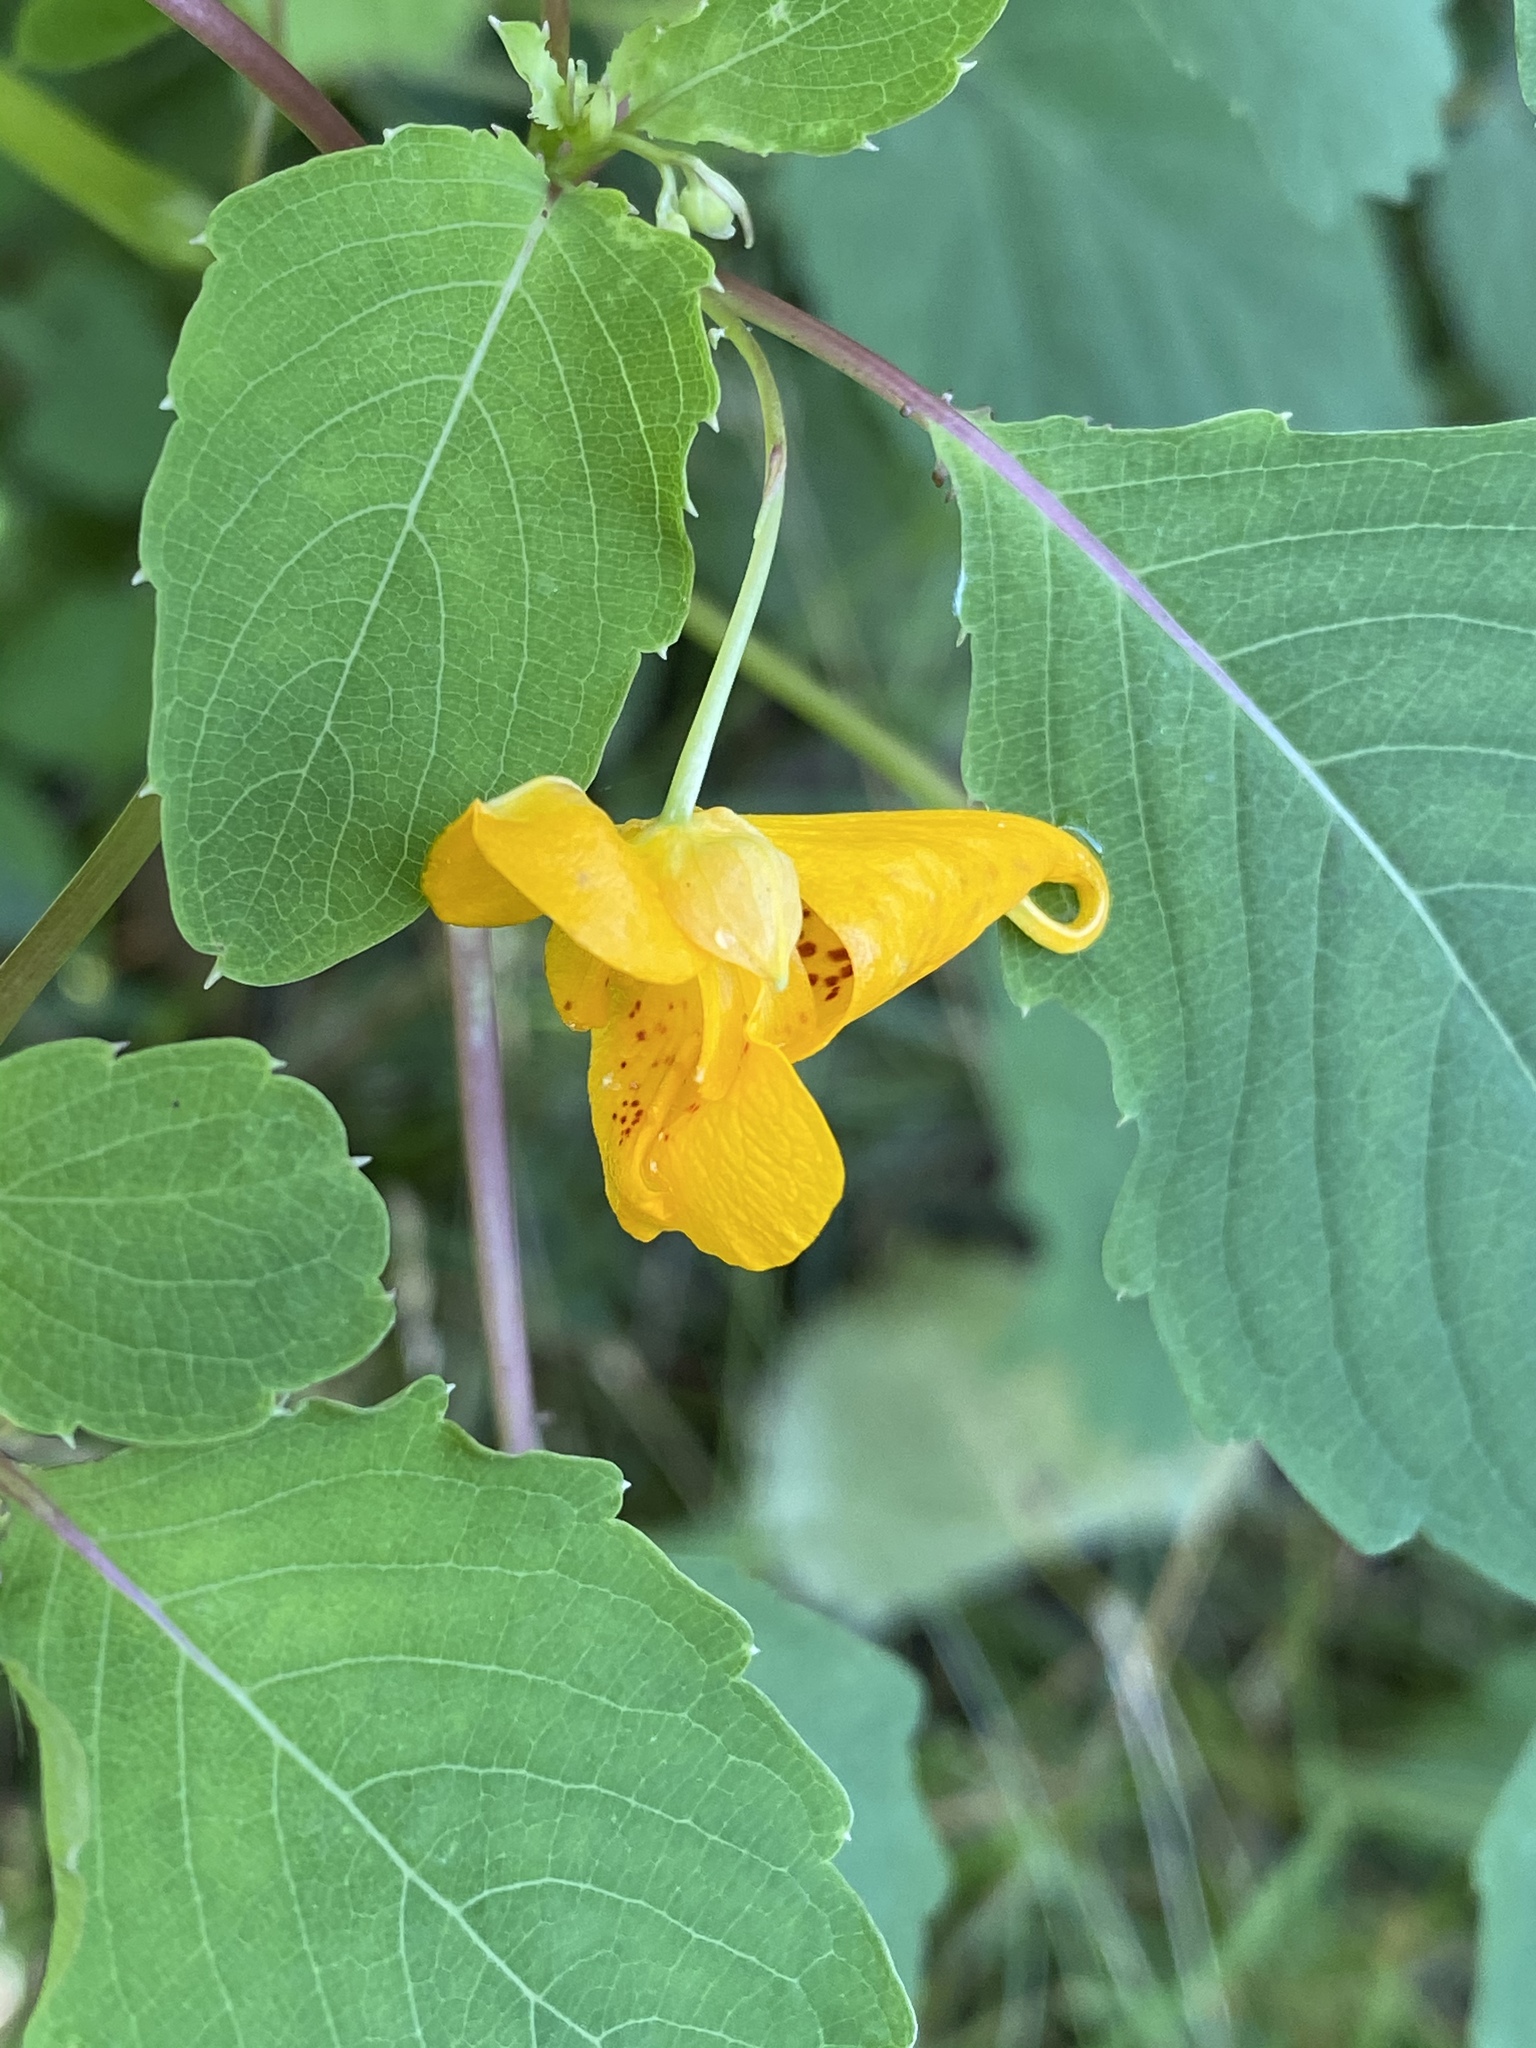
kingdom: Plantae
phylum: Tracheophyta
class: Magnoliopsida
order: Ericales
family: Balsaminaceae
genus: Impatiens
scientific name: Impatiens capensis
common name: Orange balsam
